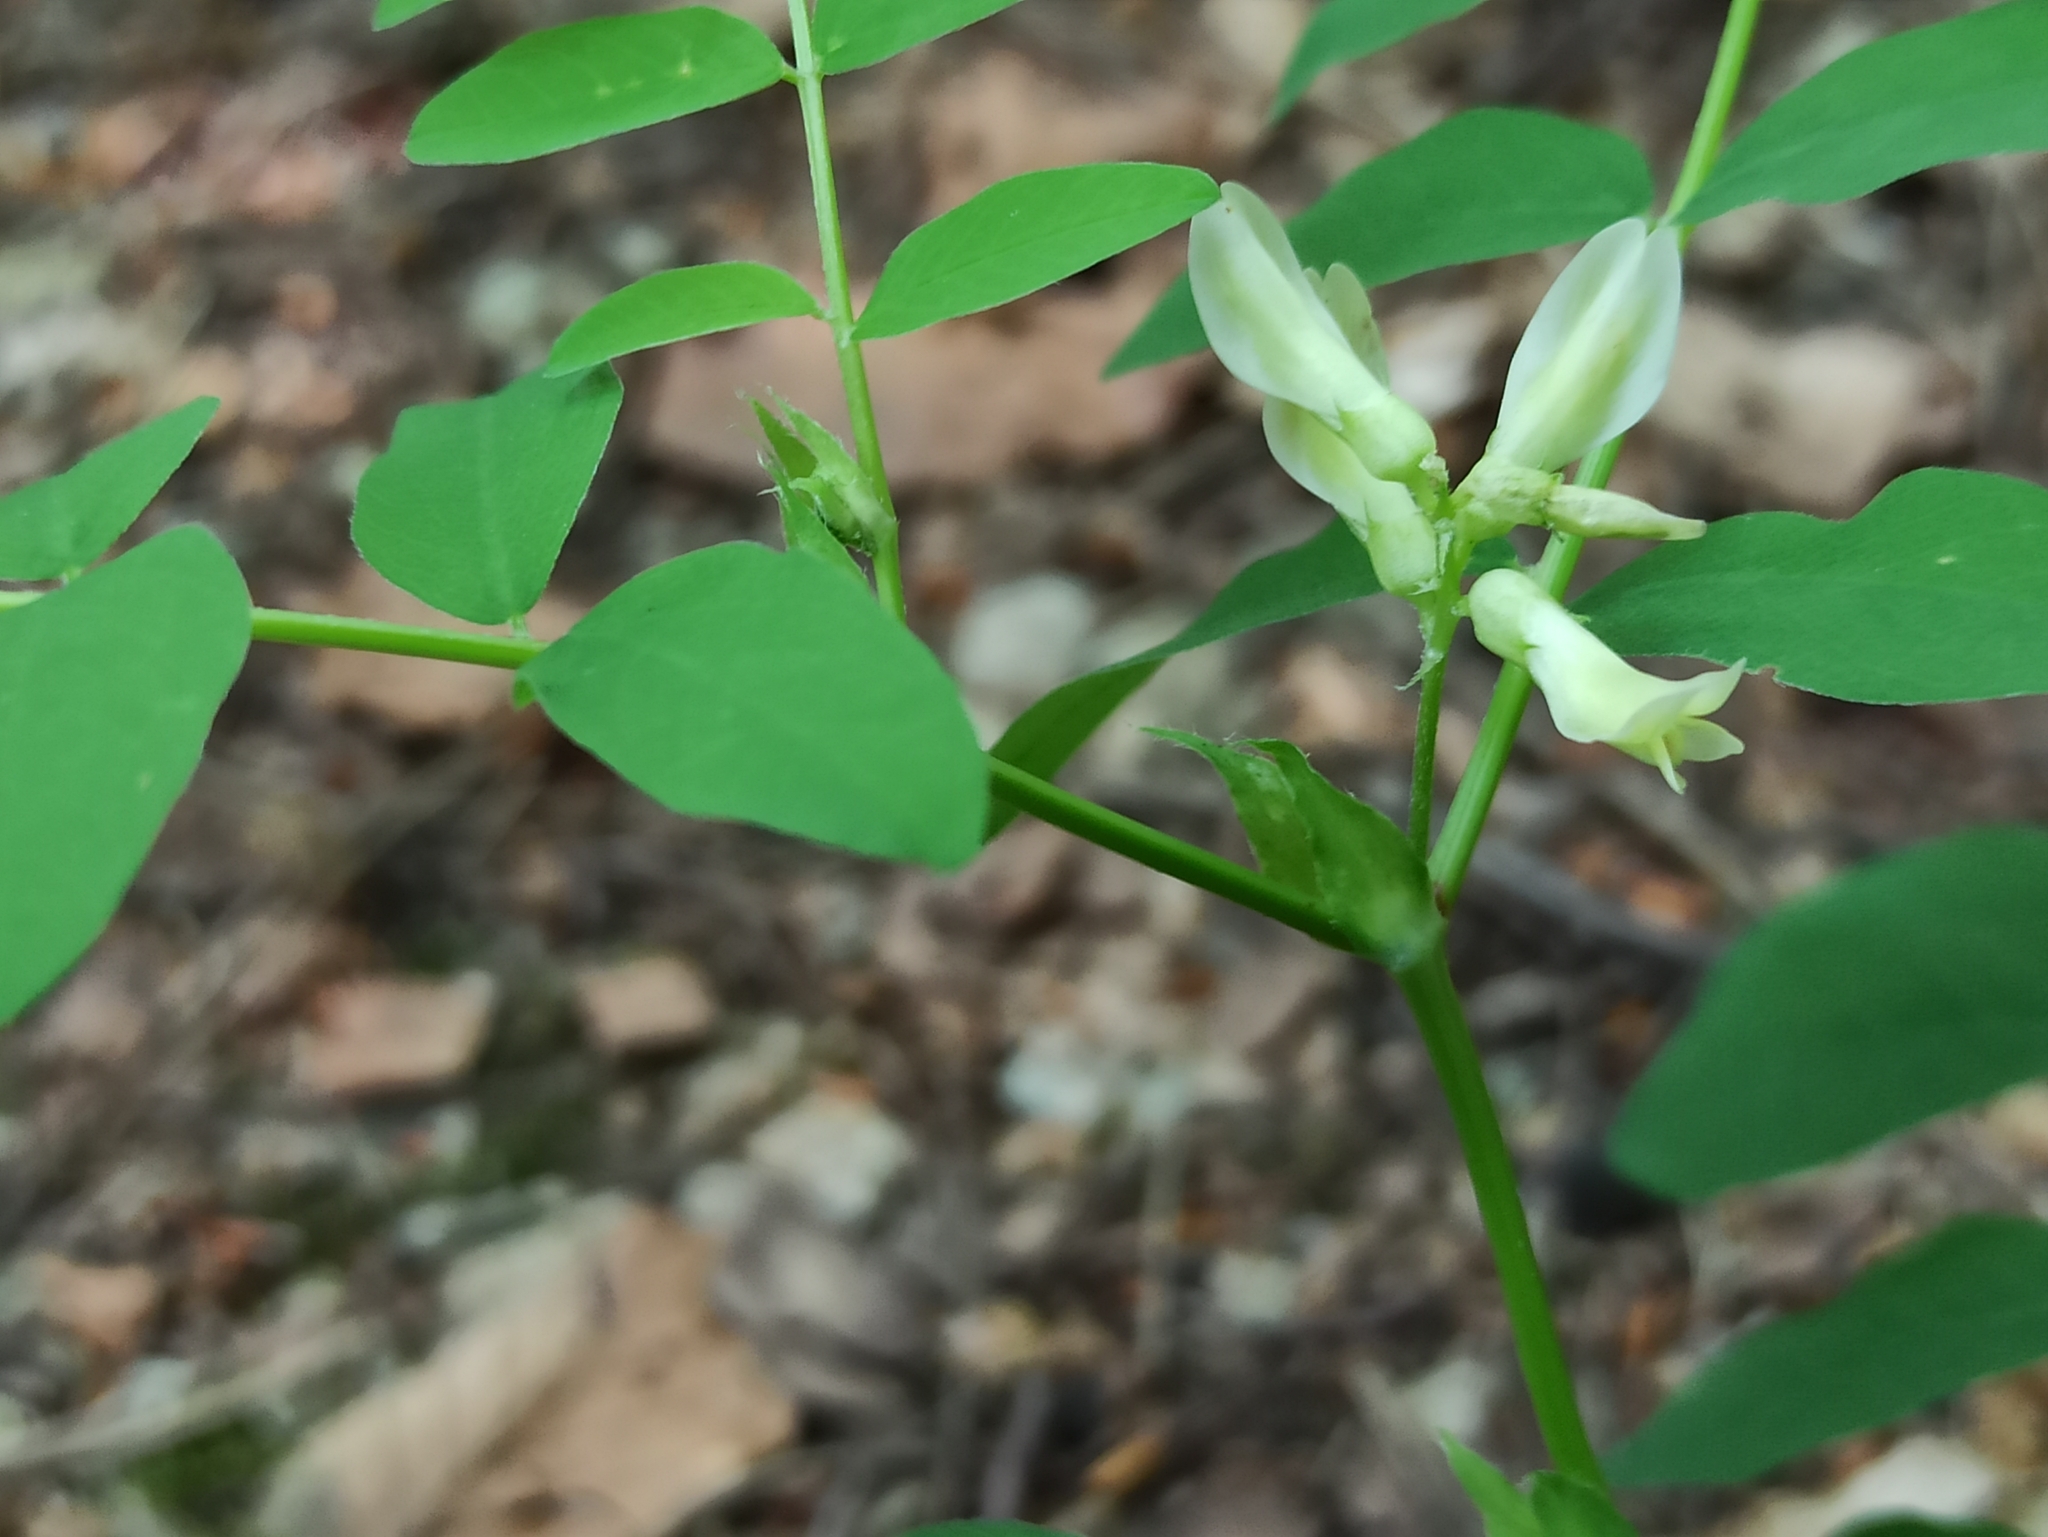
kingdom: Plantae
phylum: Tracheophyta
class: Magnoliopsida
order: Fabales
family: Fabaceae
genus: Astragalus
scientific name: Astragalus glycyphyllos
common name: Wild liquorice
